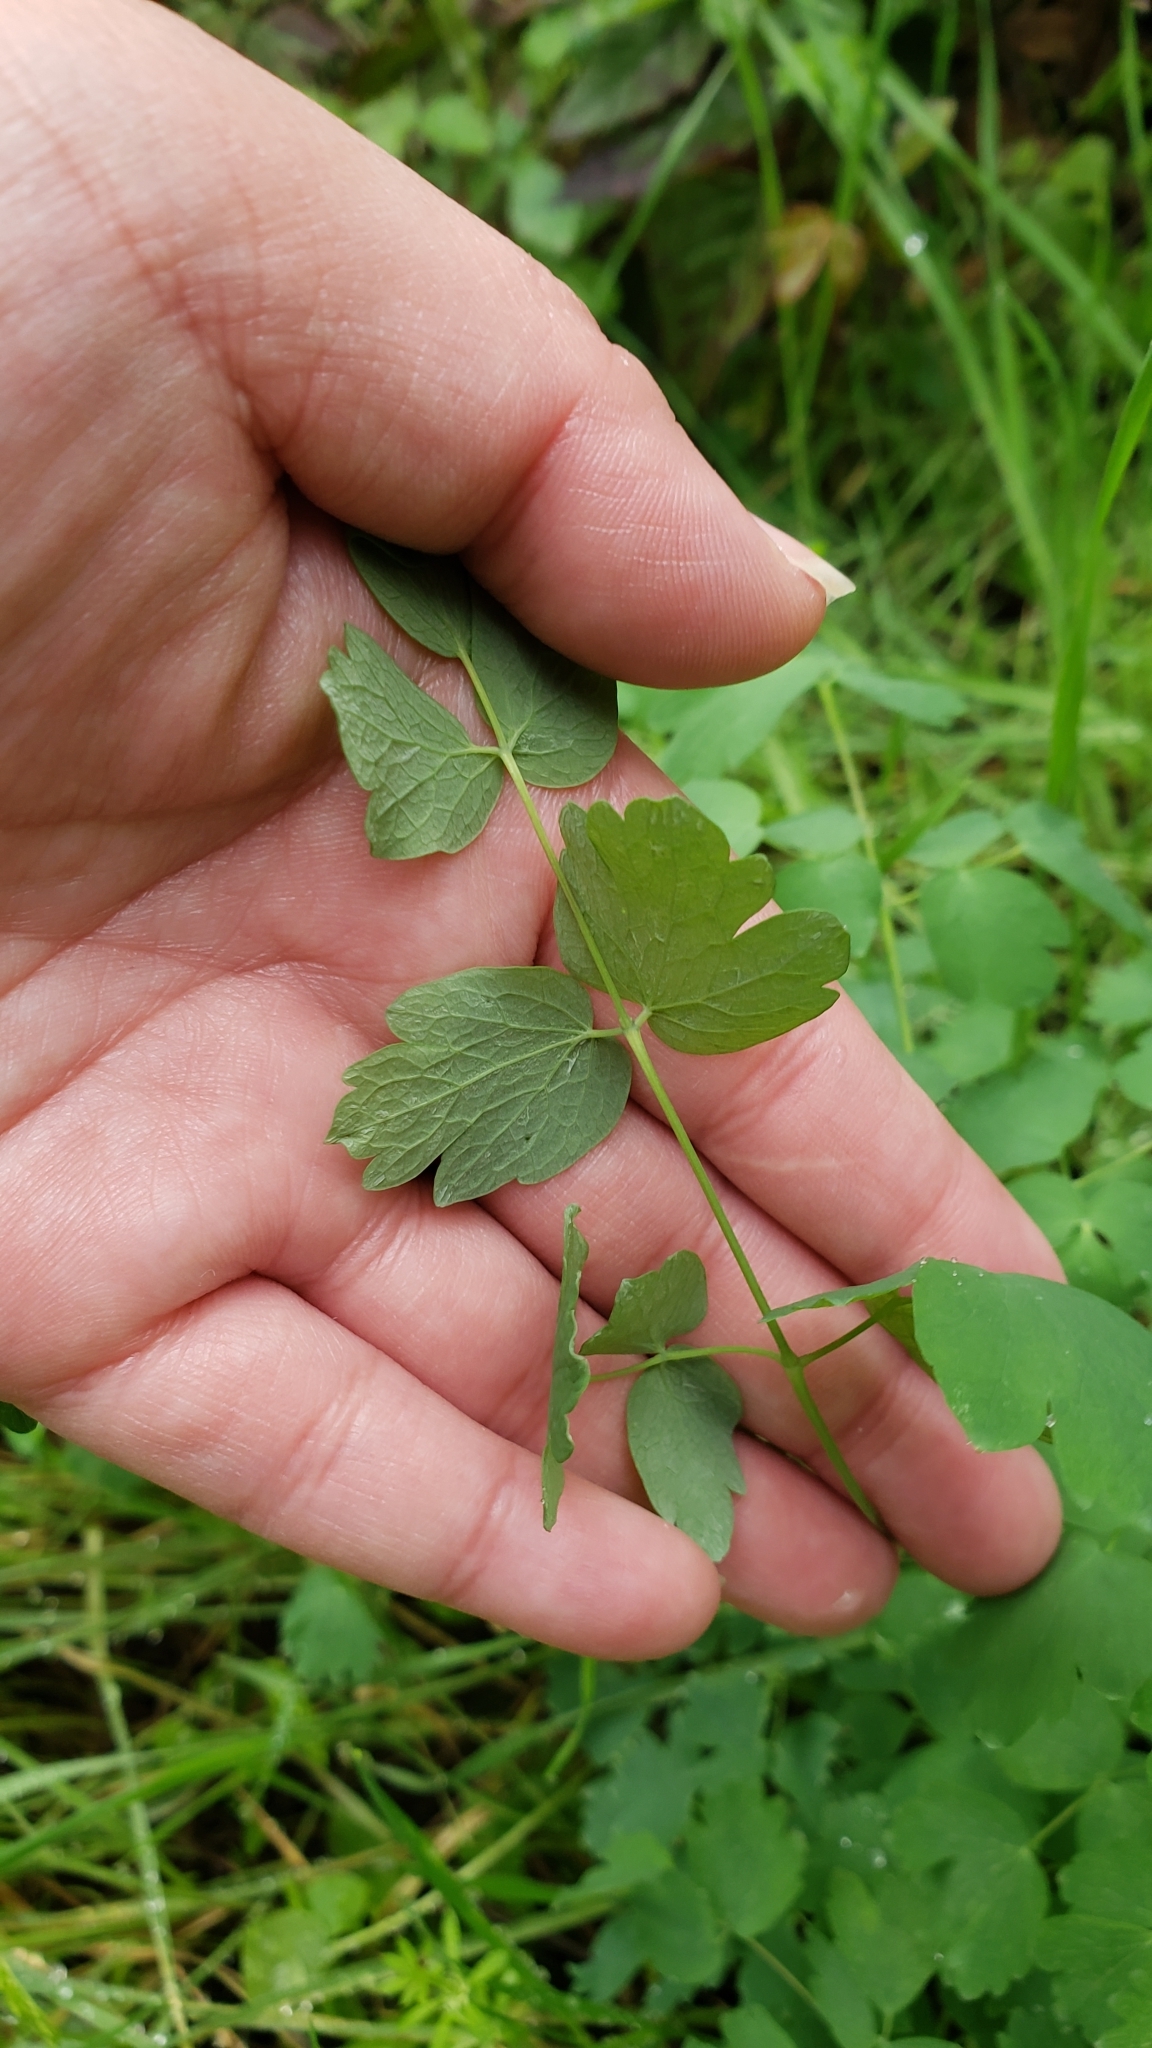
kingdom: Plantae
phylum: Tracheophyta
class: Magnoliopsida
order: Ranunculales
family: Ranunculaceae
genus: Thalictrum
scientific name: Thalictrum fendleri
